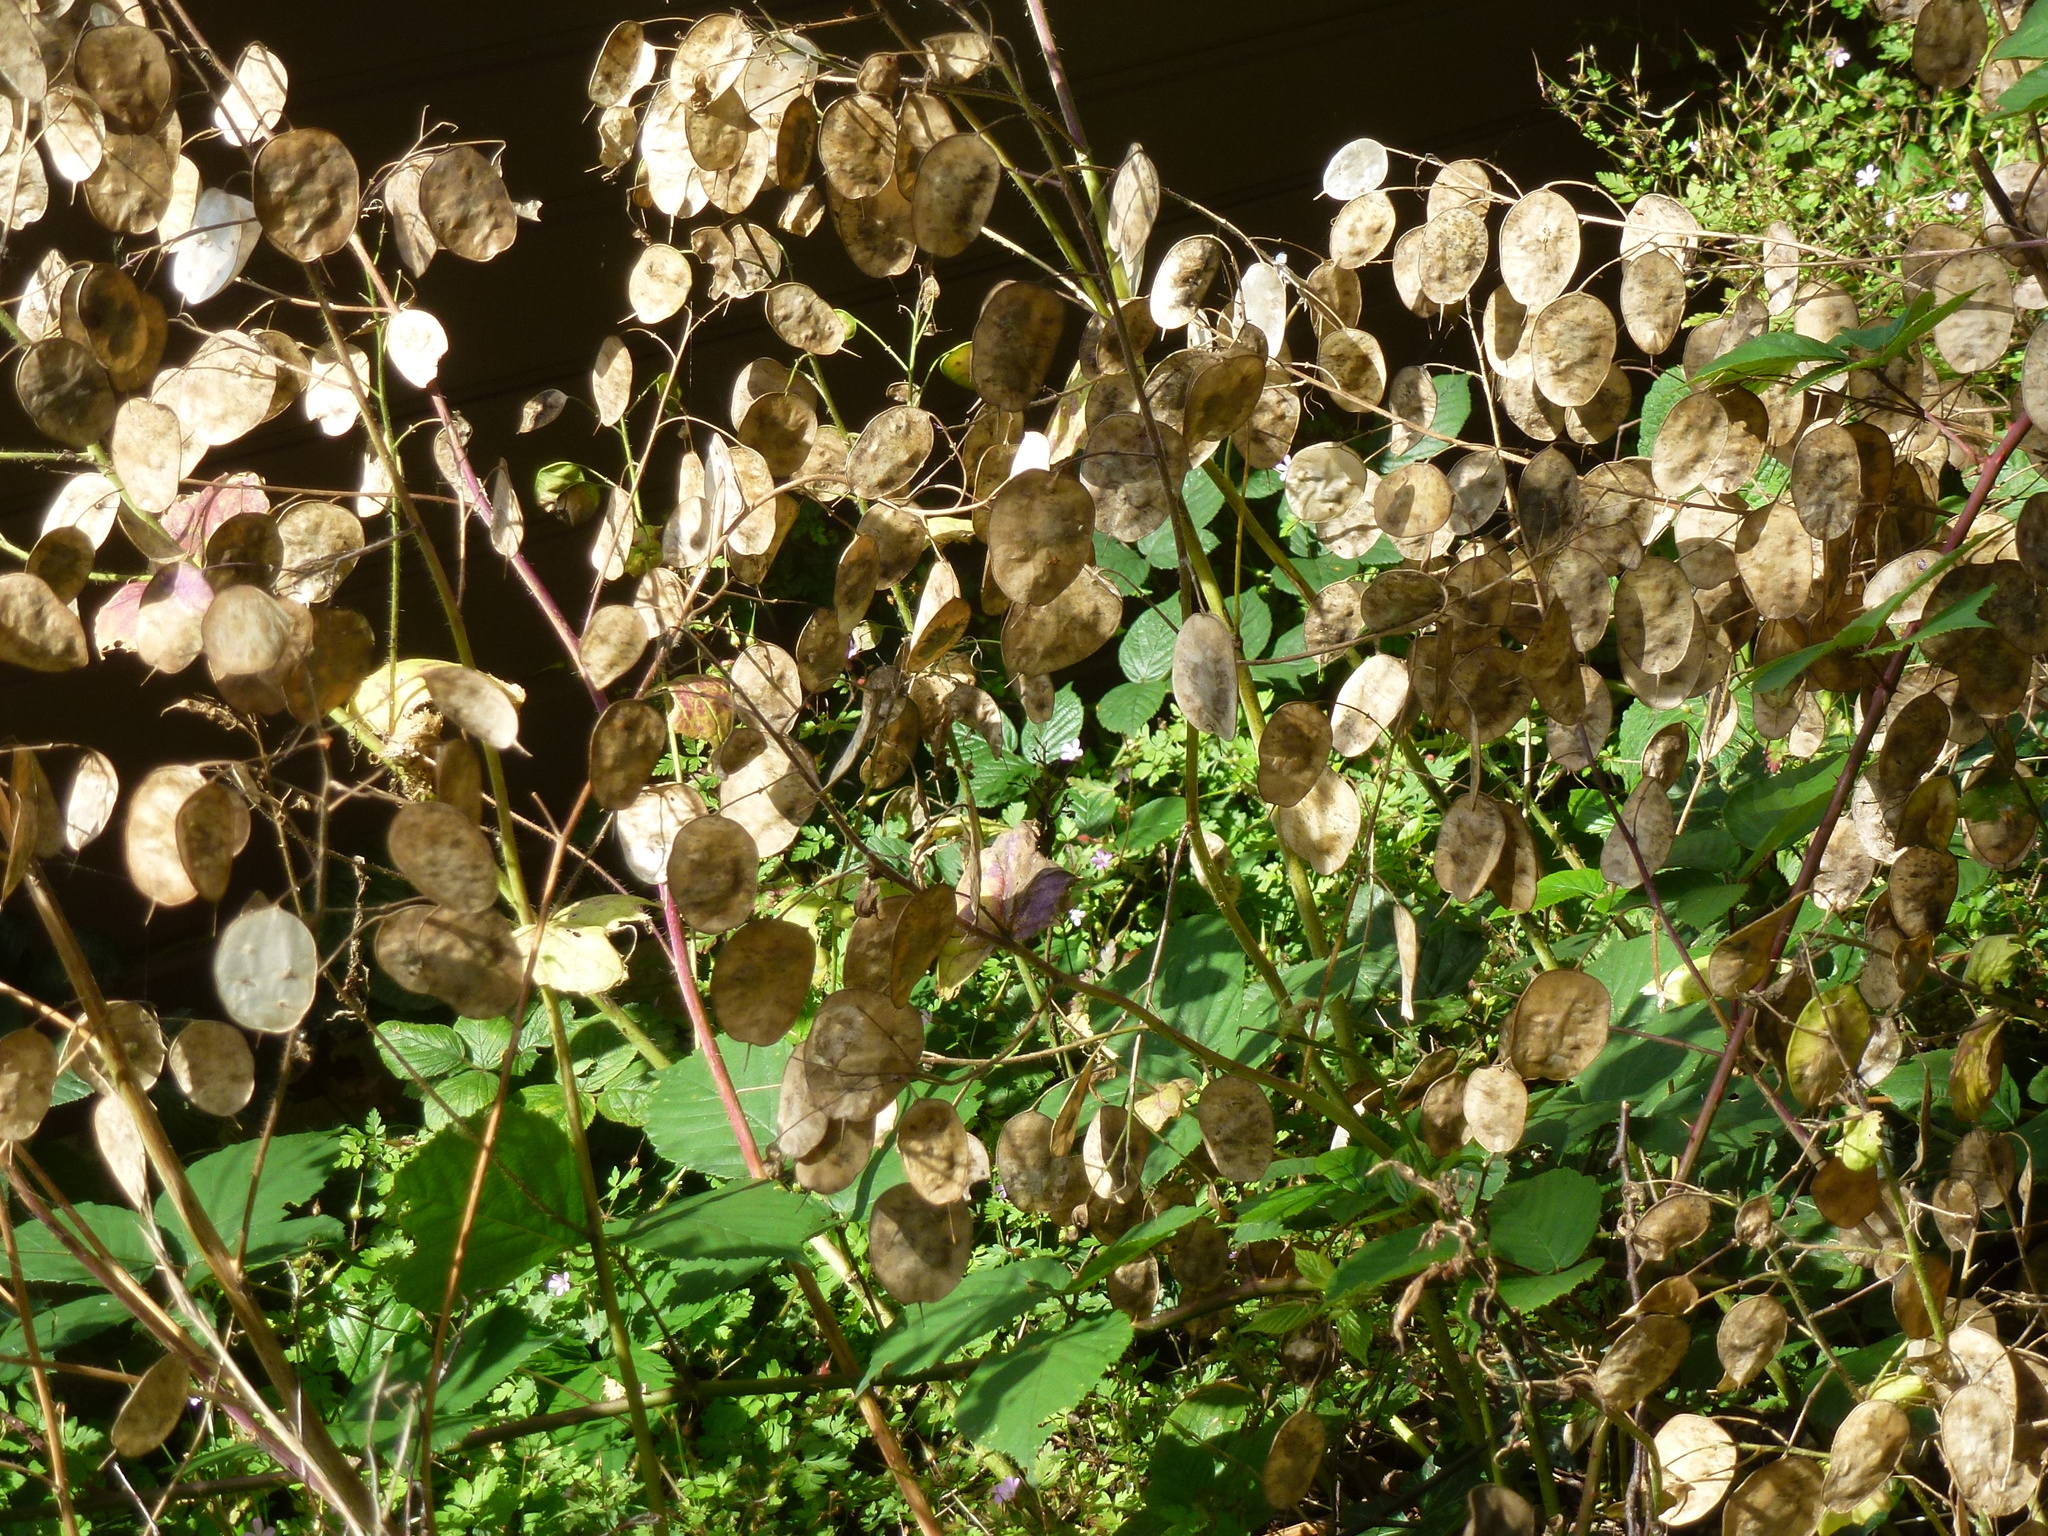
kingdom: Plantae
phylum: Tracheophyta
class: Magnoliopsida
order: Brassicales
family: Brassicaceae
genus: Lunaria
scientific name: Lunaria annua
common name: Honesty
